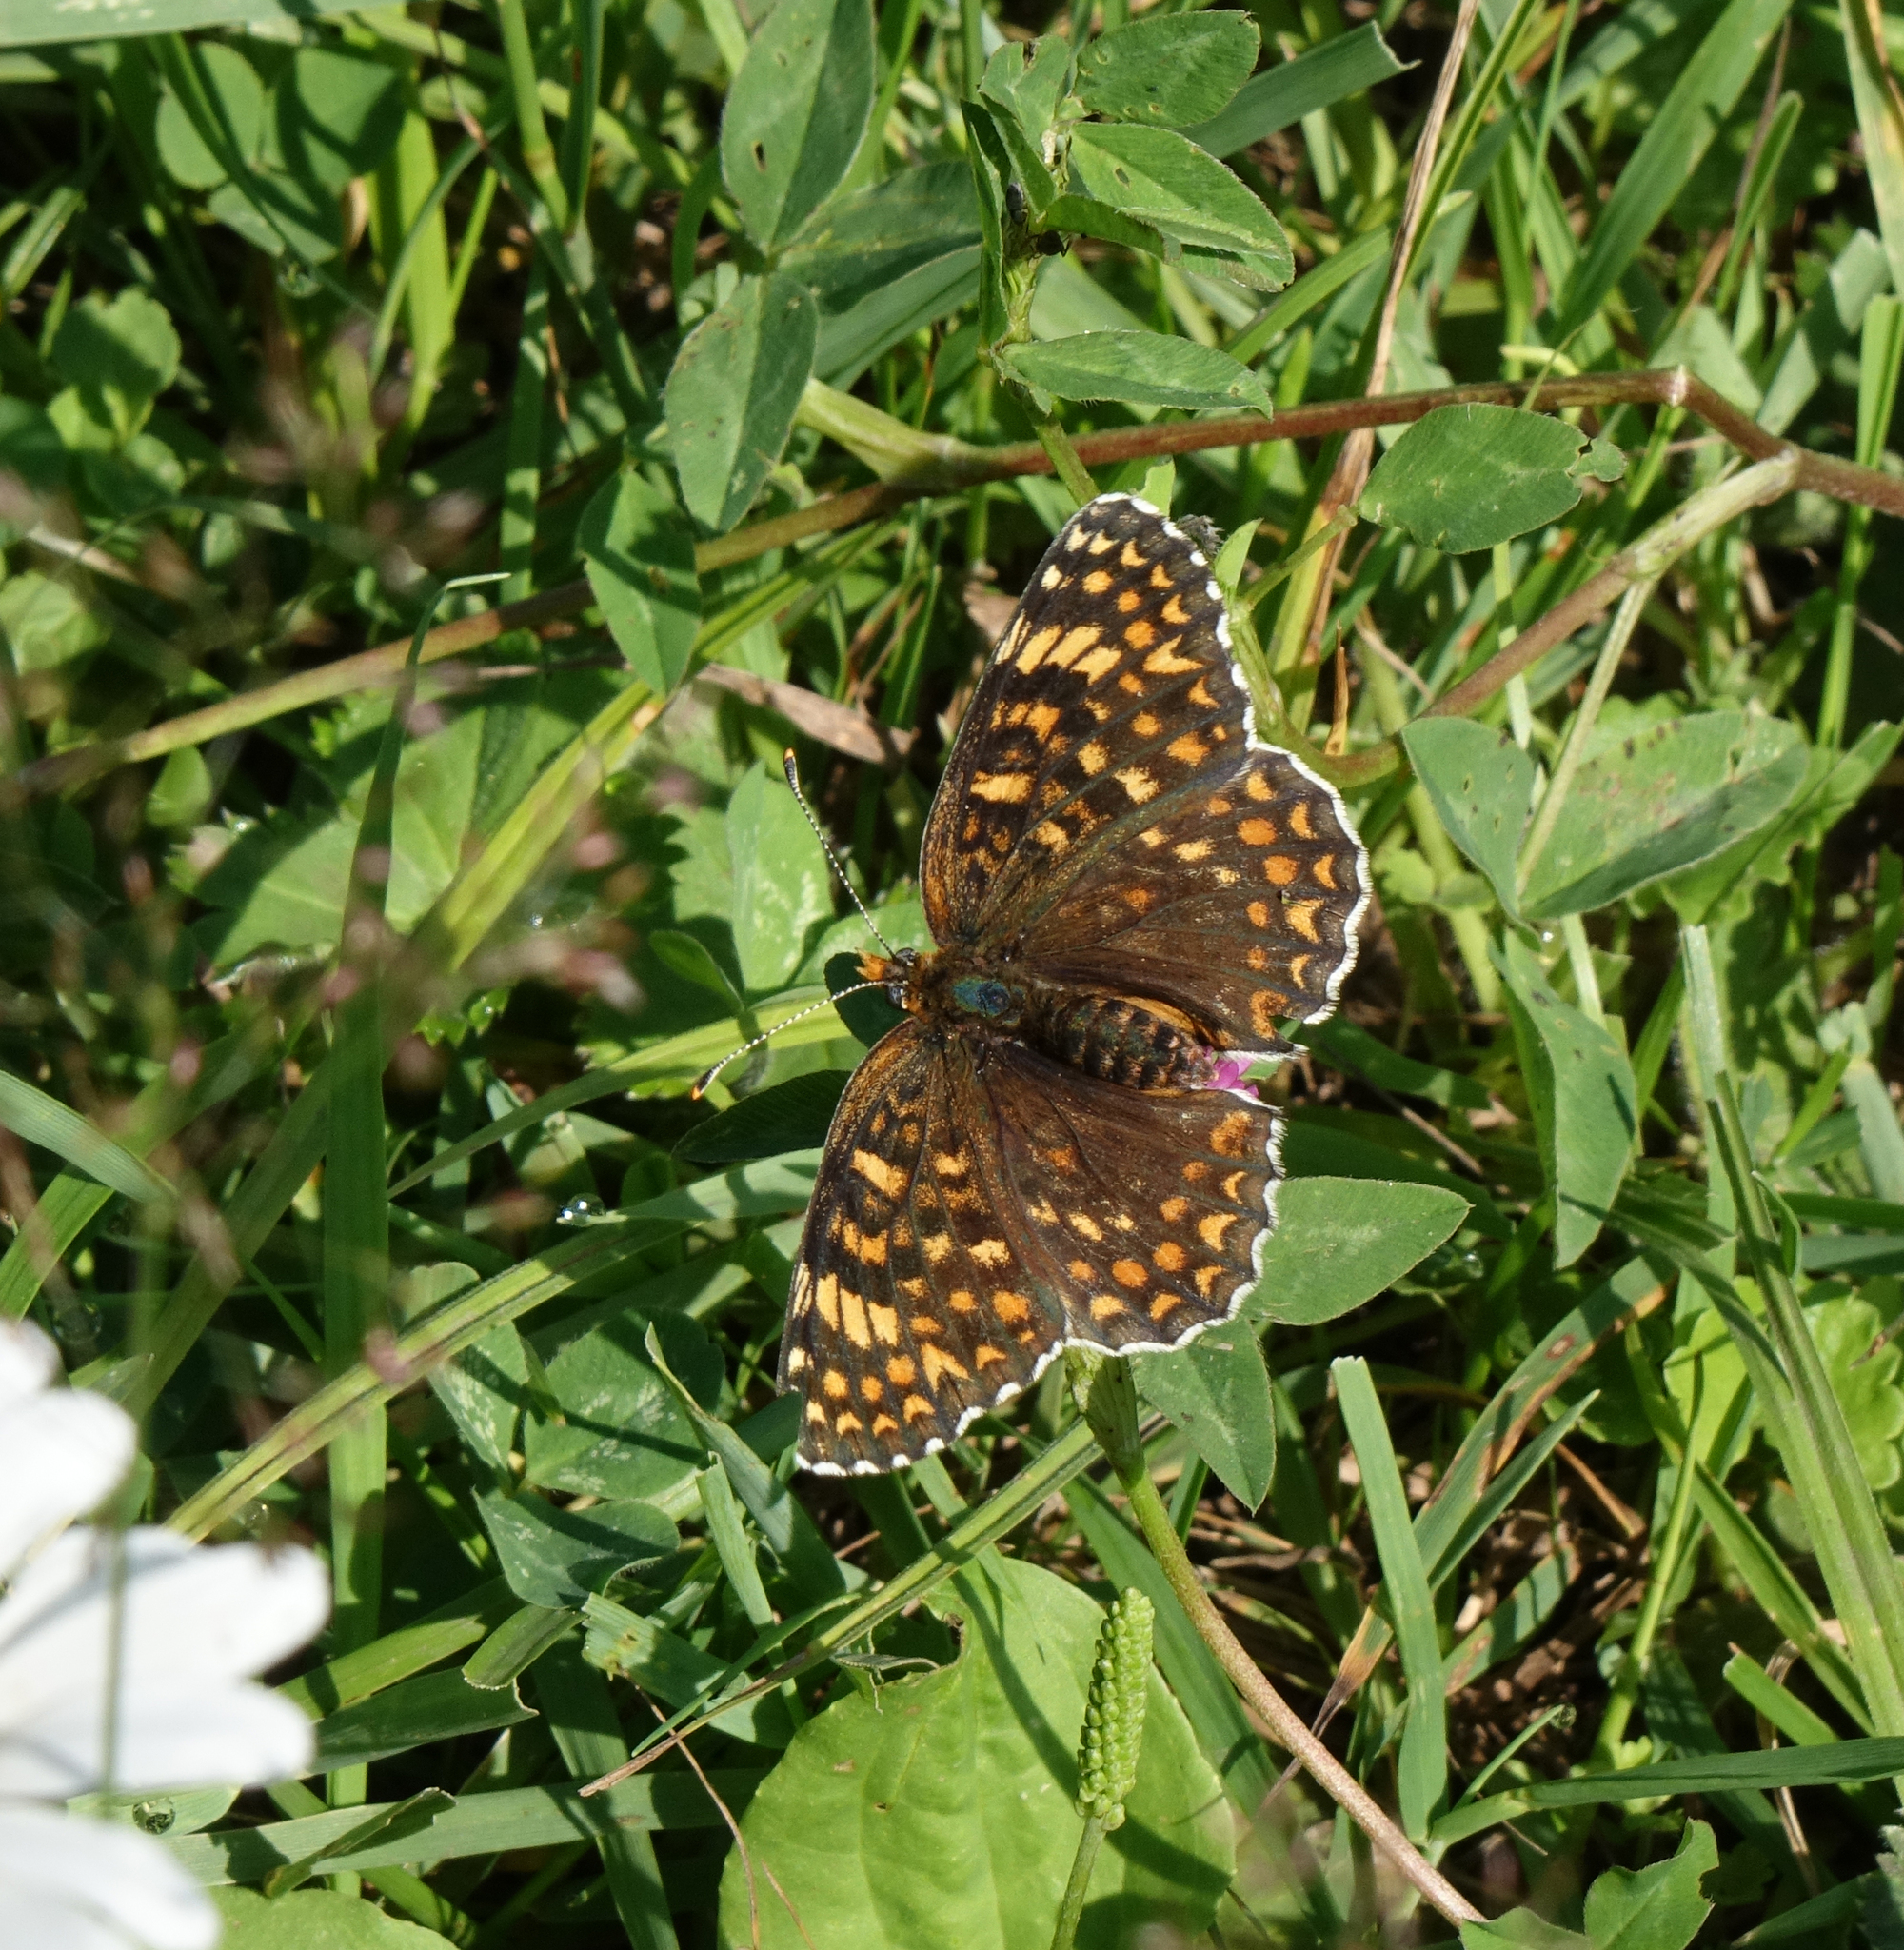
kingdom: Animalia
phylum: Arthropoda
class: Insecta
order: Lepidoptera
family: Nymphalidae
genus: Melitaea
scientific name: Melitaea phoebe
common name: Knapweed fritillary
